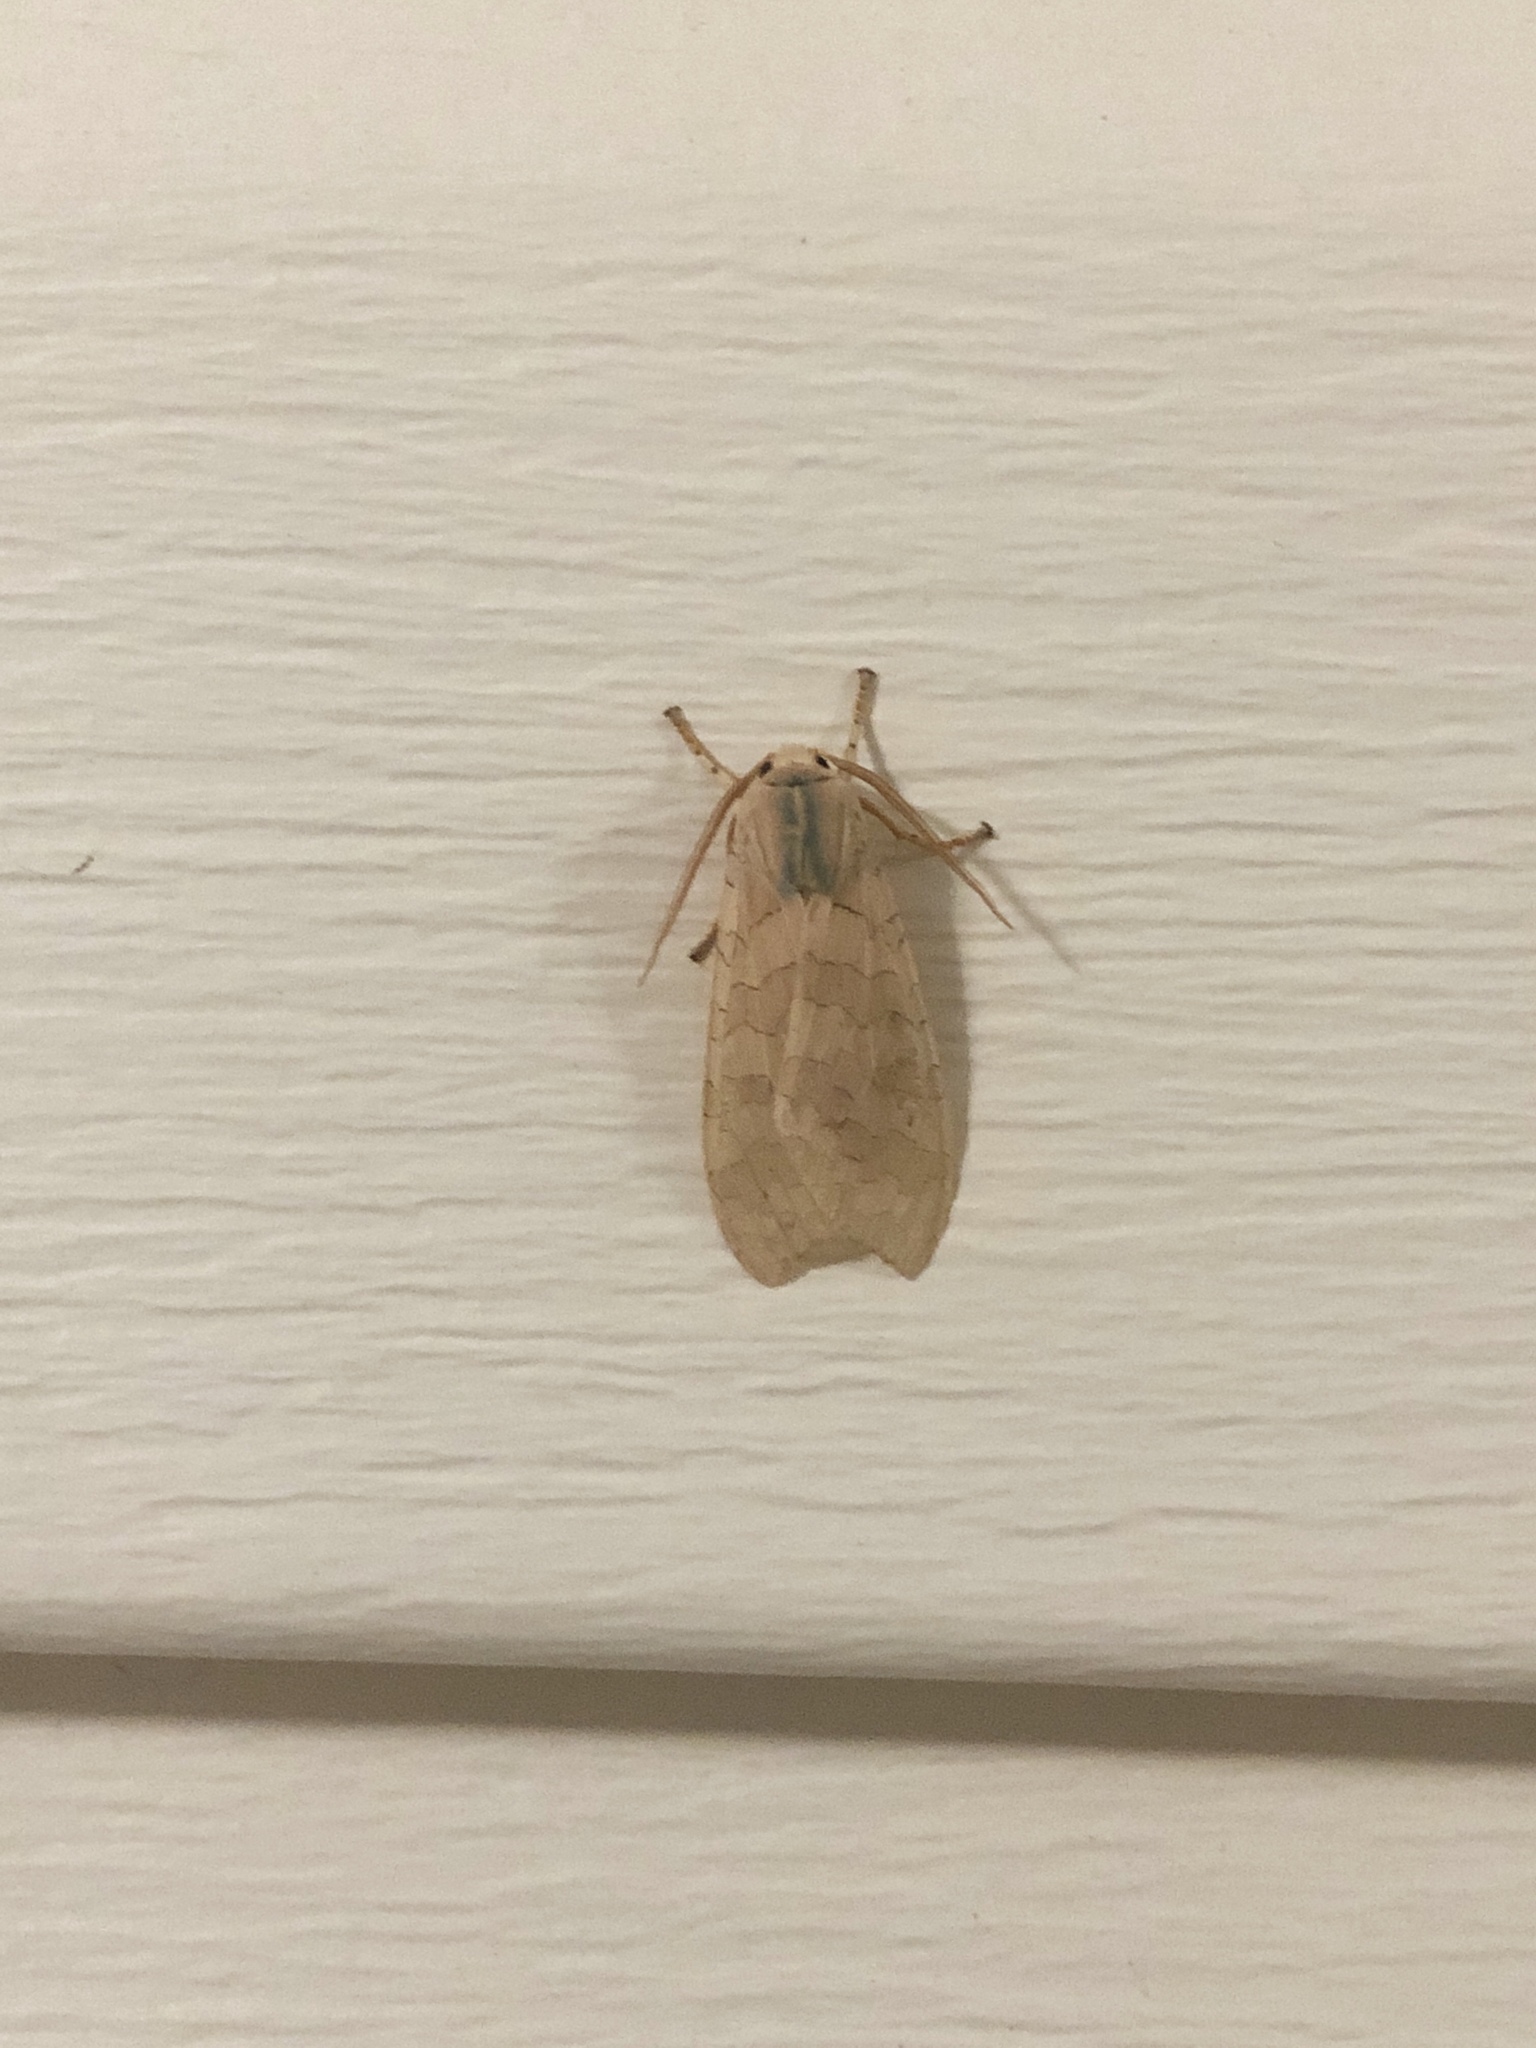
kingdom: Animalia
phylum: Arthropoda
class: Insecta
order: Lepidoptera
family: Erebidae
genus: Halysidota
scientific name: Halysidota
